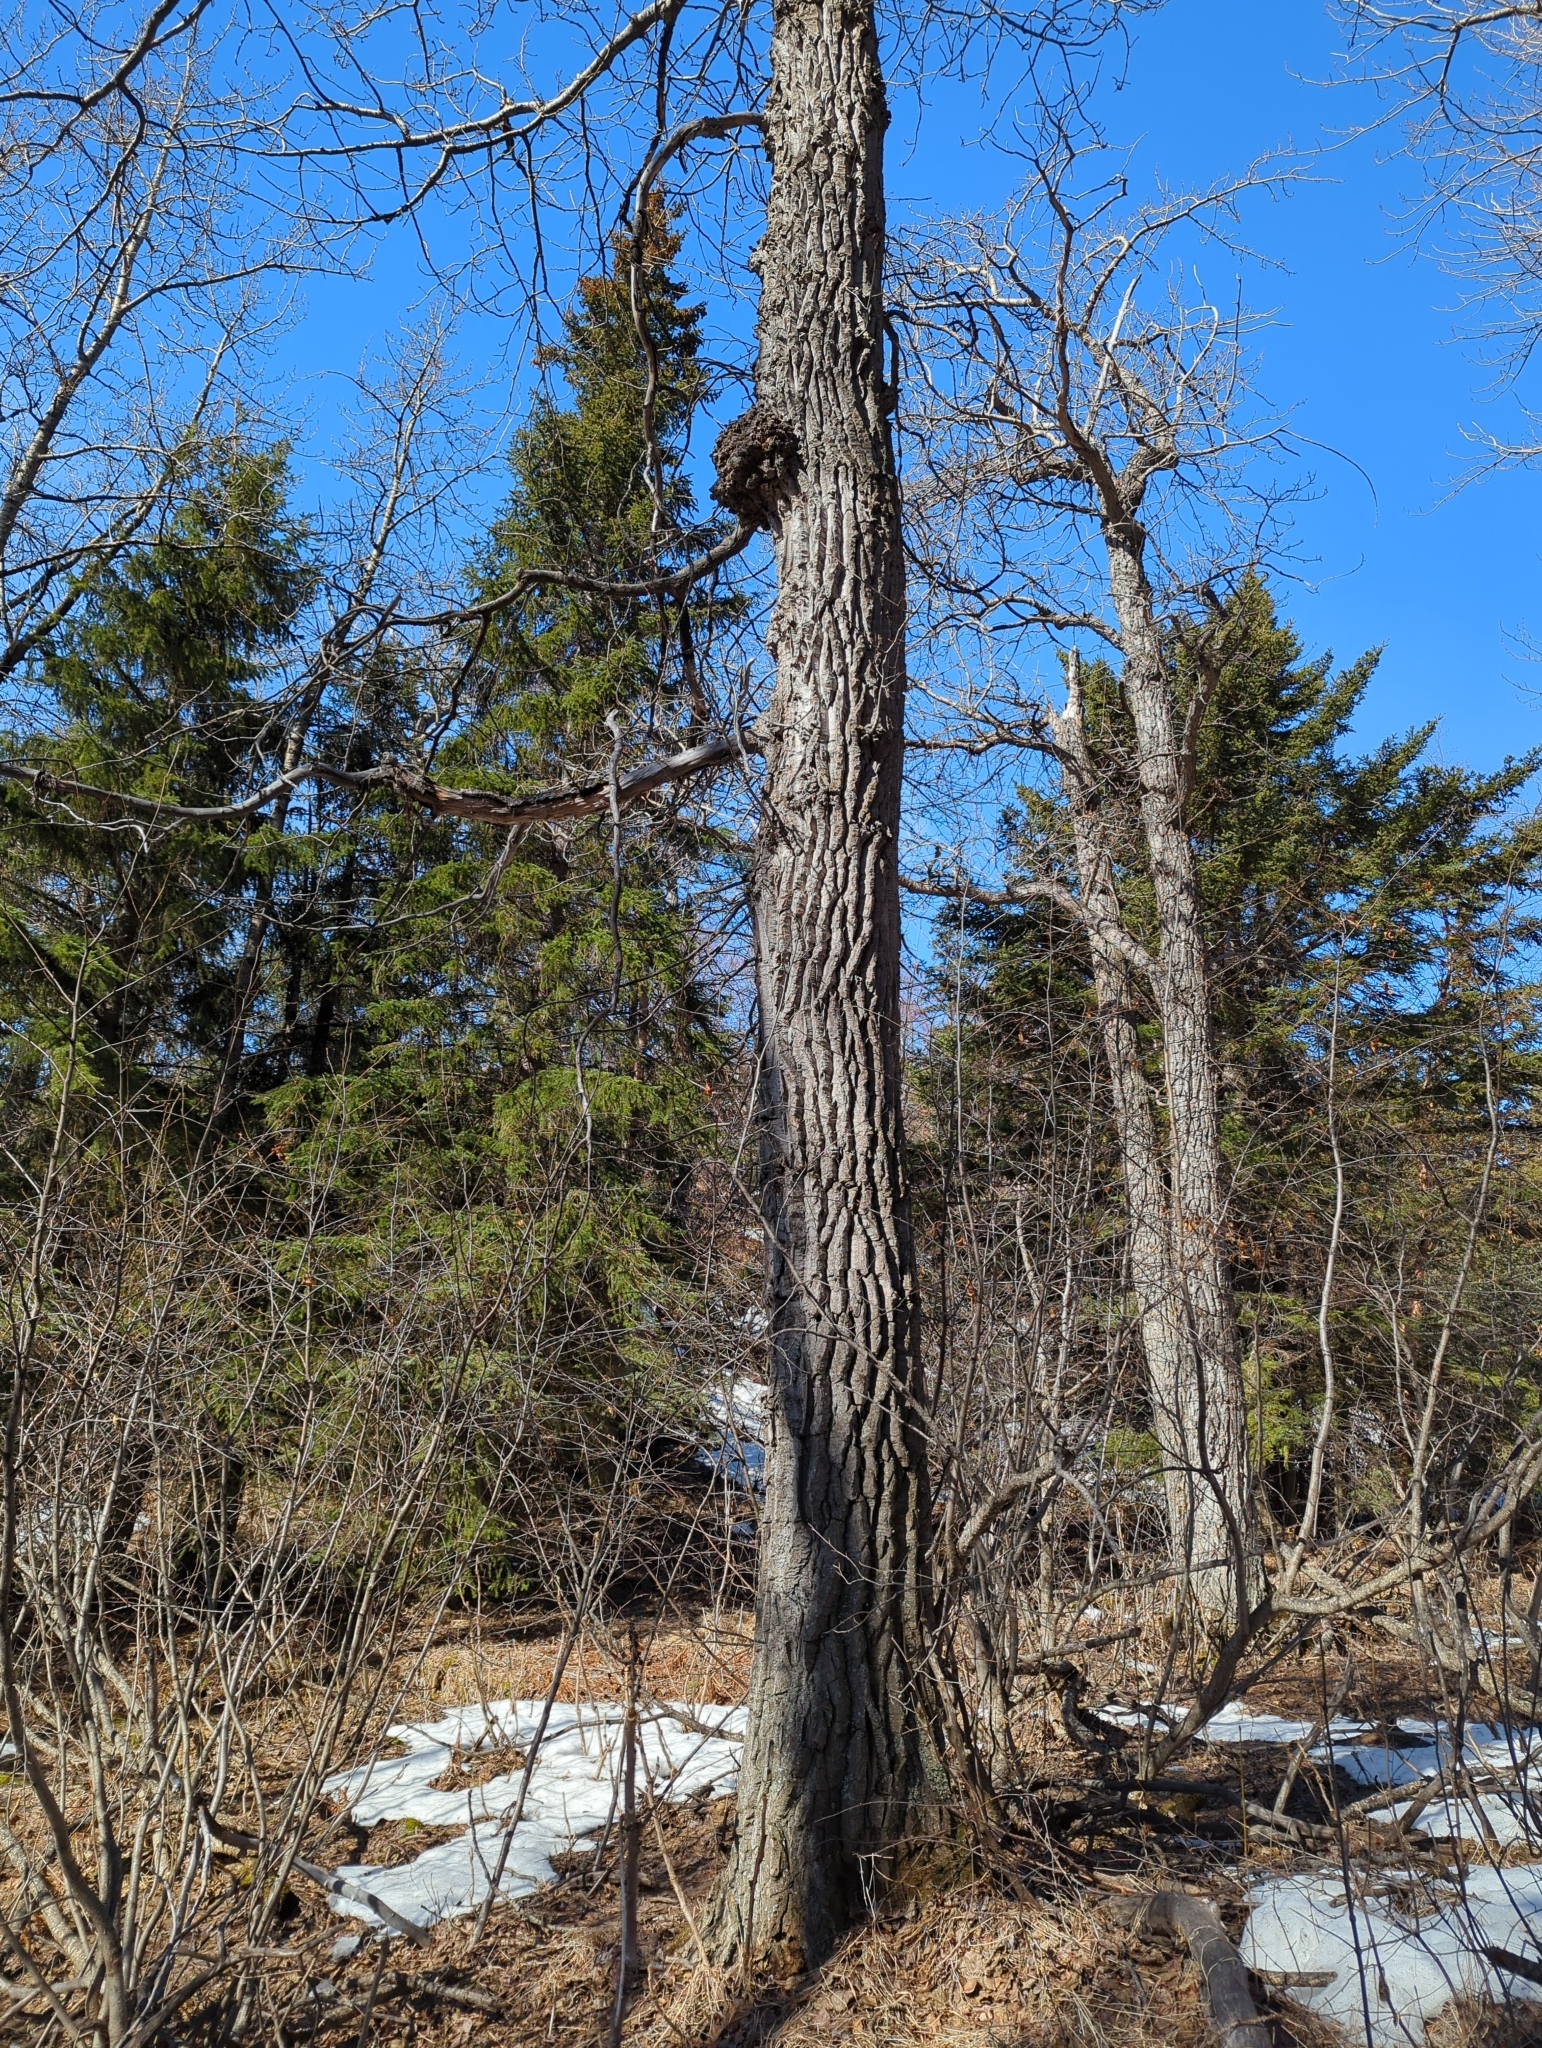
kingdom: Fungi
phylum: Ascomycota
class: Dothideomycetes
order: Botryosphaeriales
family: Botryosphaeriaceae
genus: Diplodia
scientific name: Diplodia tumefaciens
